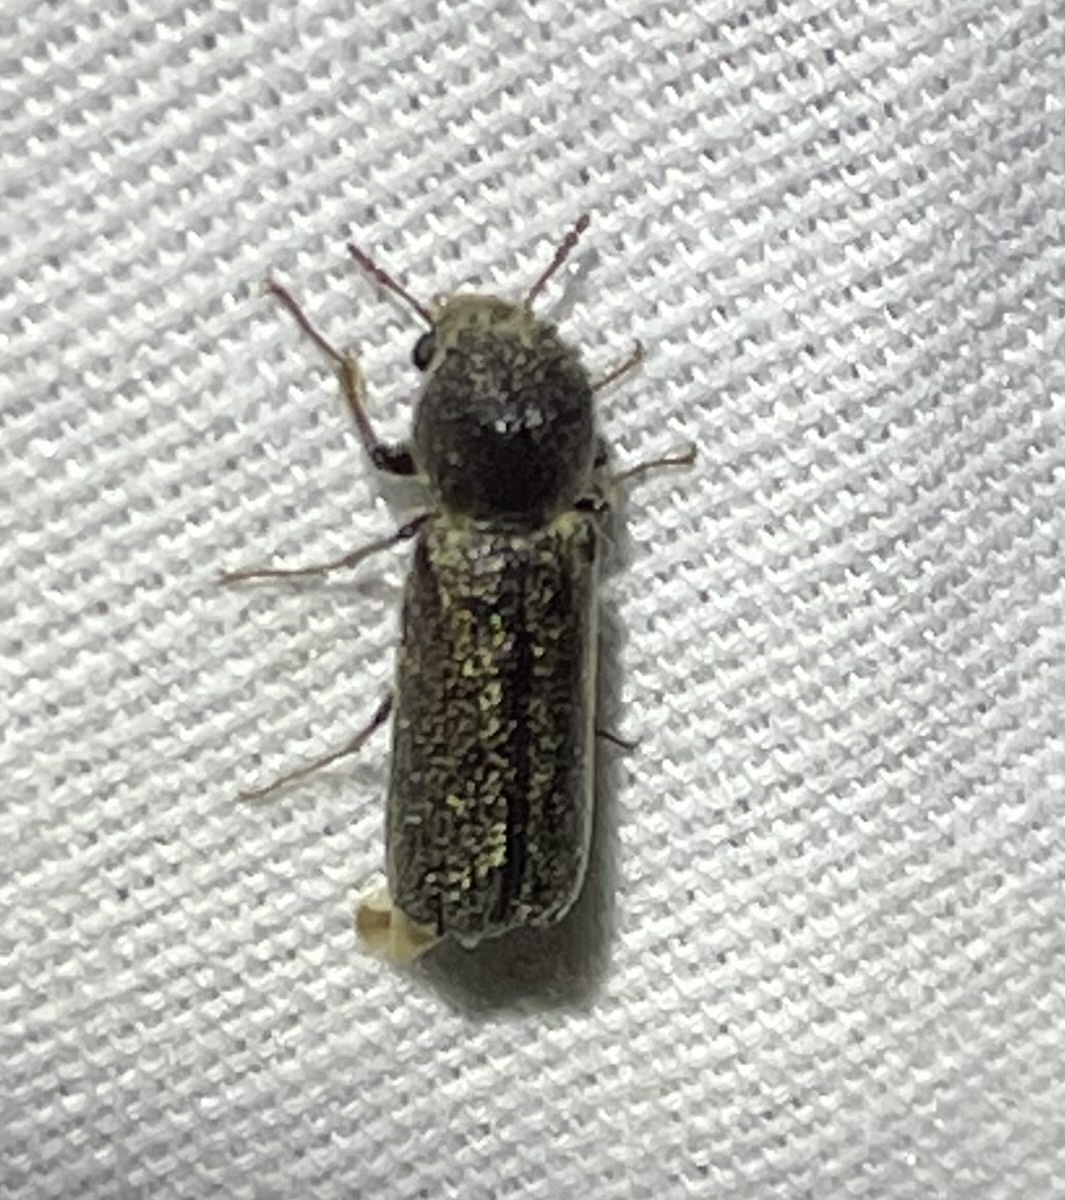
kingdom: Animalia
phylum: Arthropoda
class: Insecta
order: Coleoptera
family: Bostrichidae
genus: Amphicerus
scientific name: Amphicerus bicaudatus
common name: Apple twig borer
